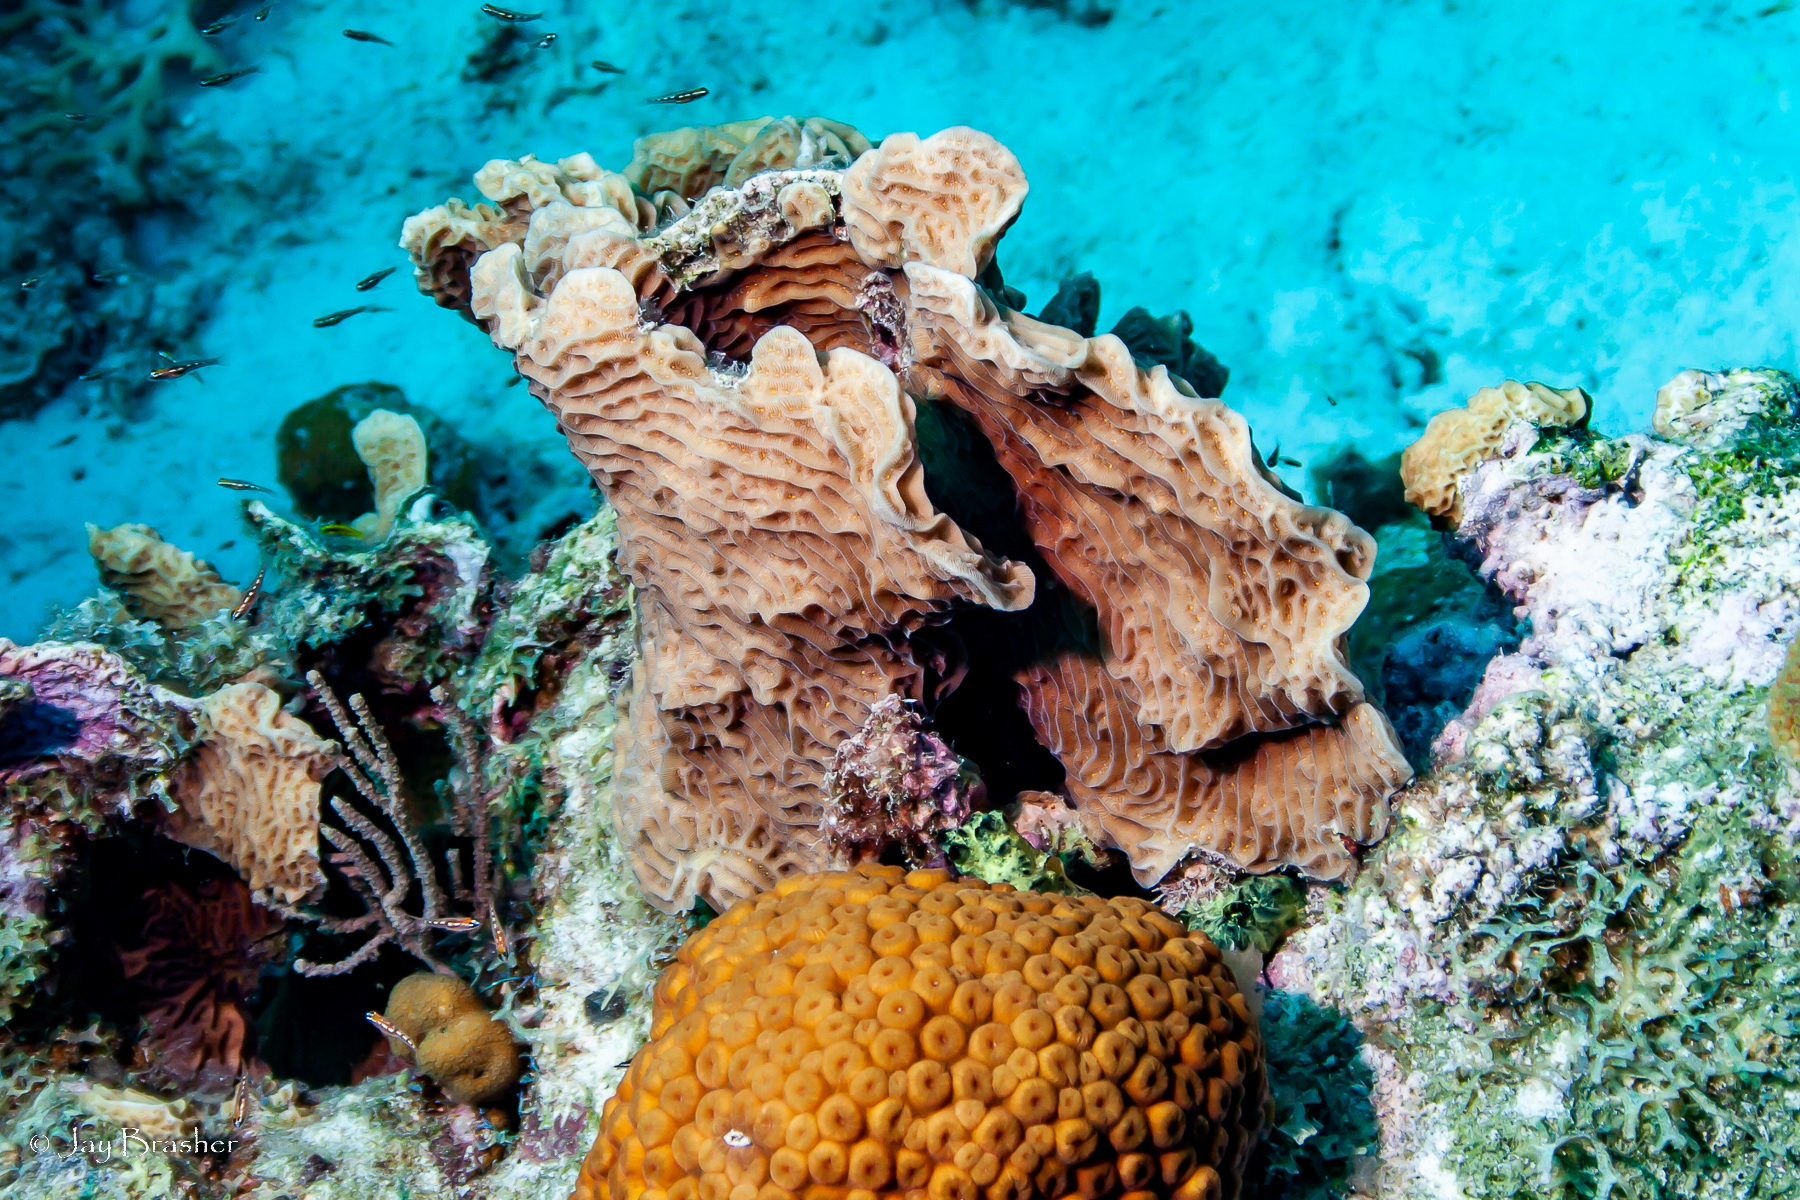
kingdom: Animalia
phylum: Cnidaria
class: Anthozoa
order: Scleractinia
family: Agariciidae
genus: Agaricia
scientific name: Agaricia agaricites
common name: Lettuce coral
